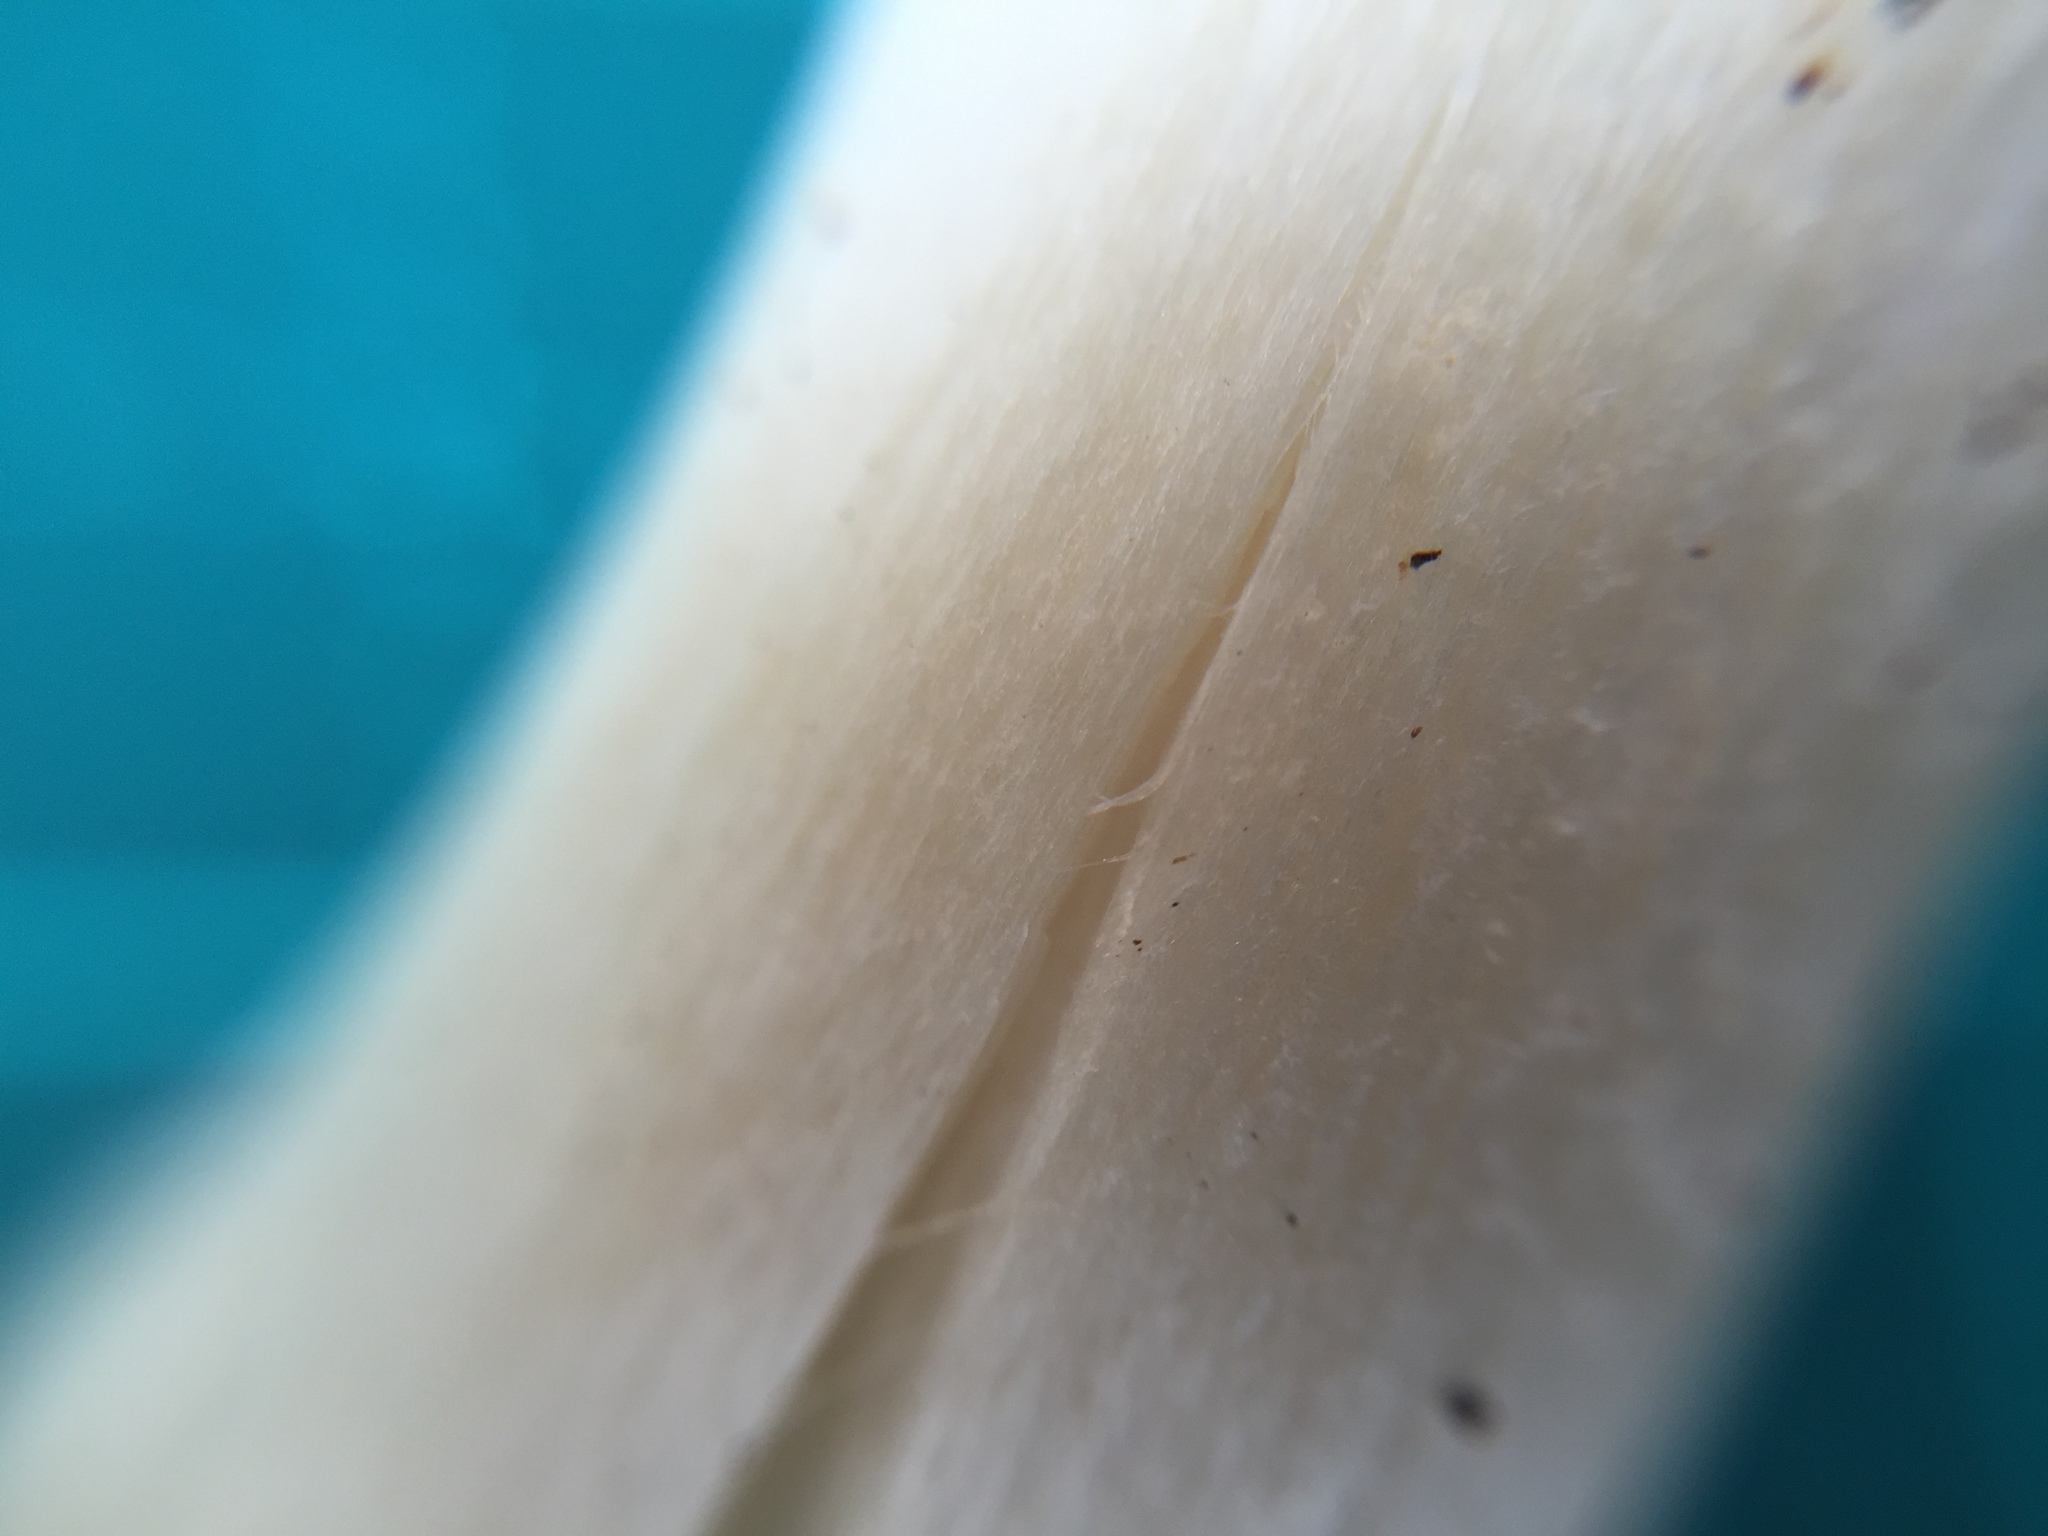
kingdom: Fungi
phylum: Basidiomycota
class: Agaricomycetes
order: Agaricales
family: Lyophyllaceae
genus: Gerhardtia
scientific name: Gerhardtia foliicola
